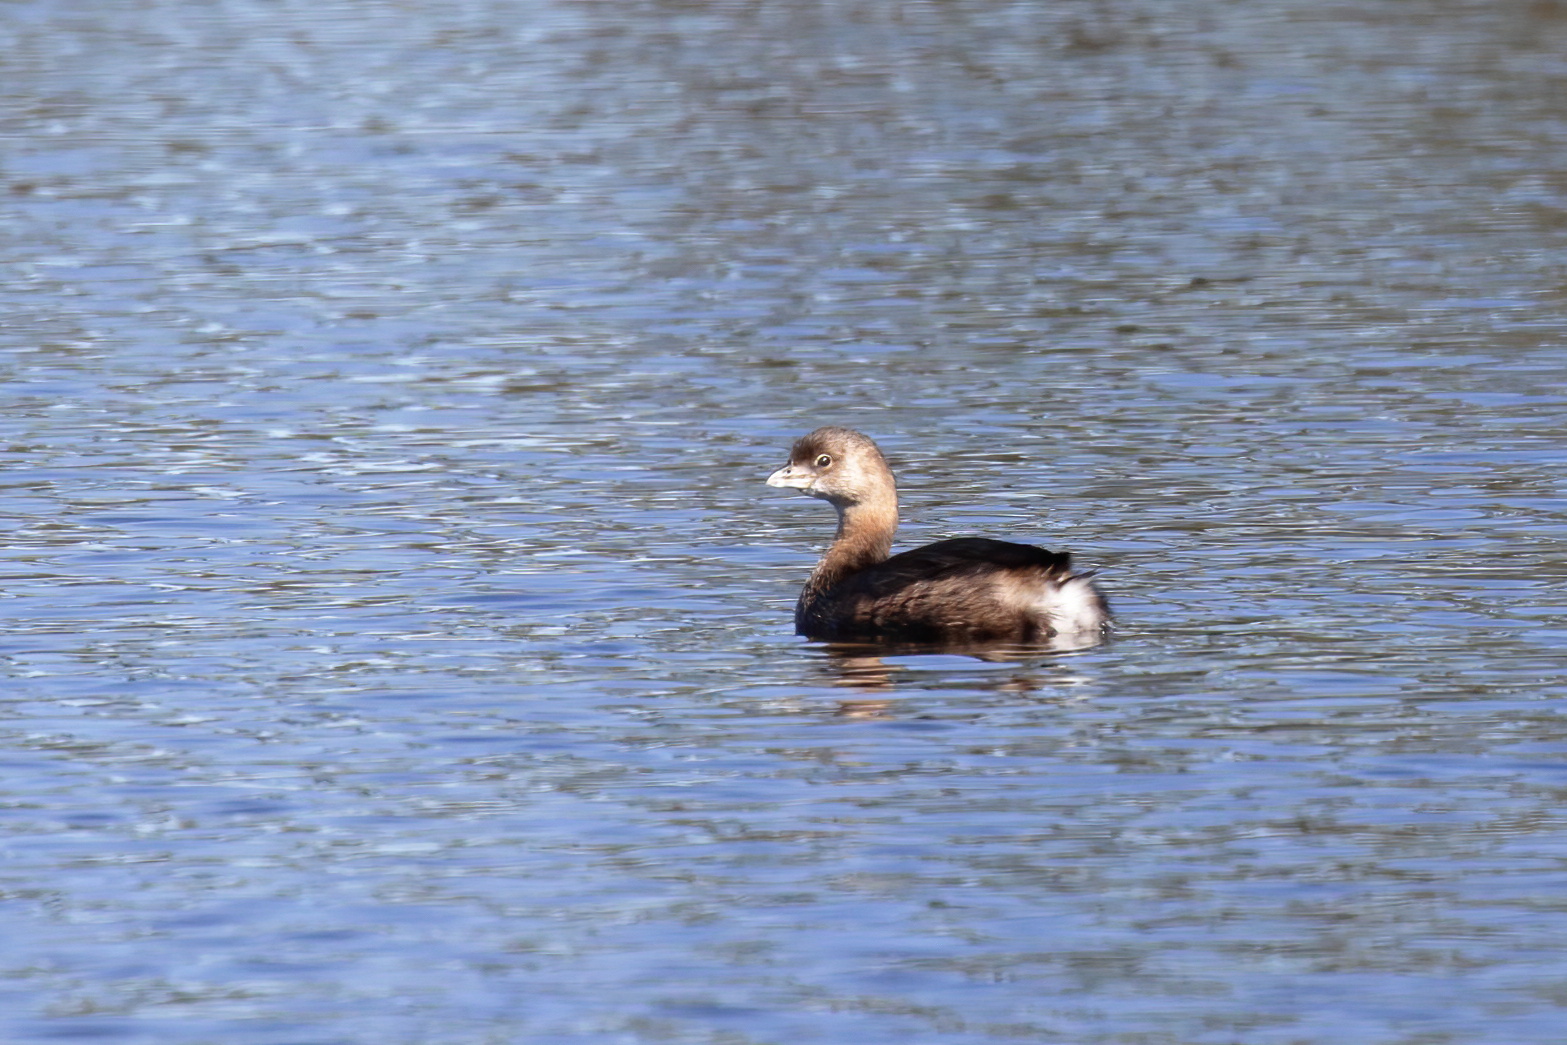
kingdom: Animalia
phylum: Chordata
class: Aves
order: Podicipediformes
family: Podicipedidae
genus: Podilymbus
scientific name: Podilymbus podiceps
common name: Pied-billed grebe
